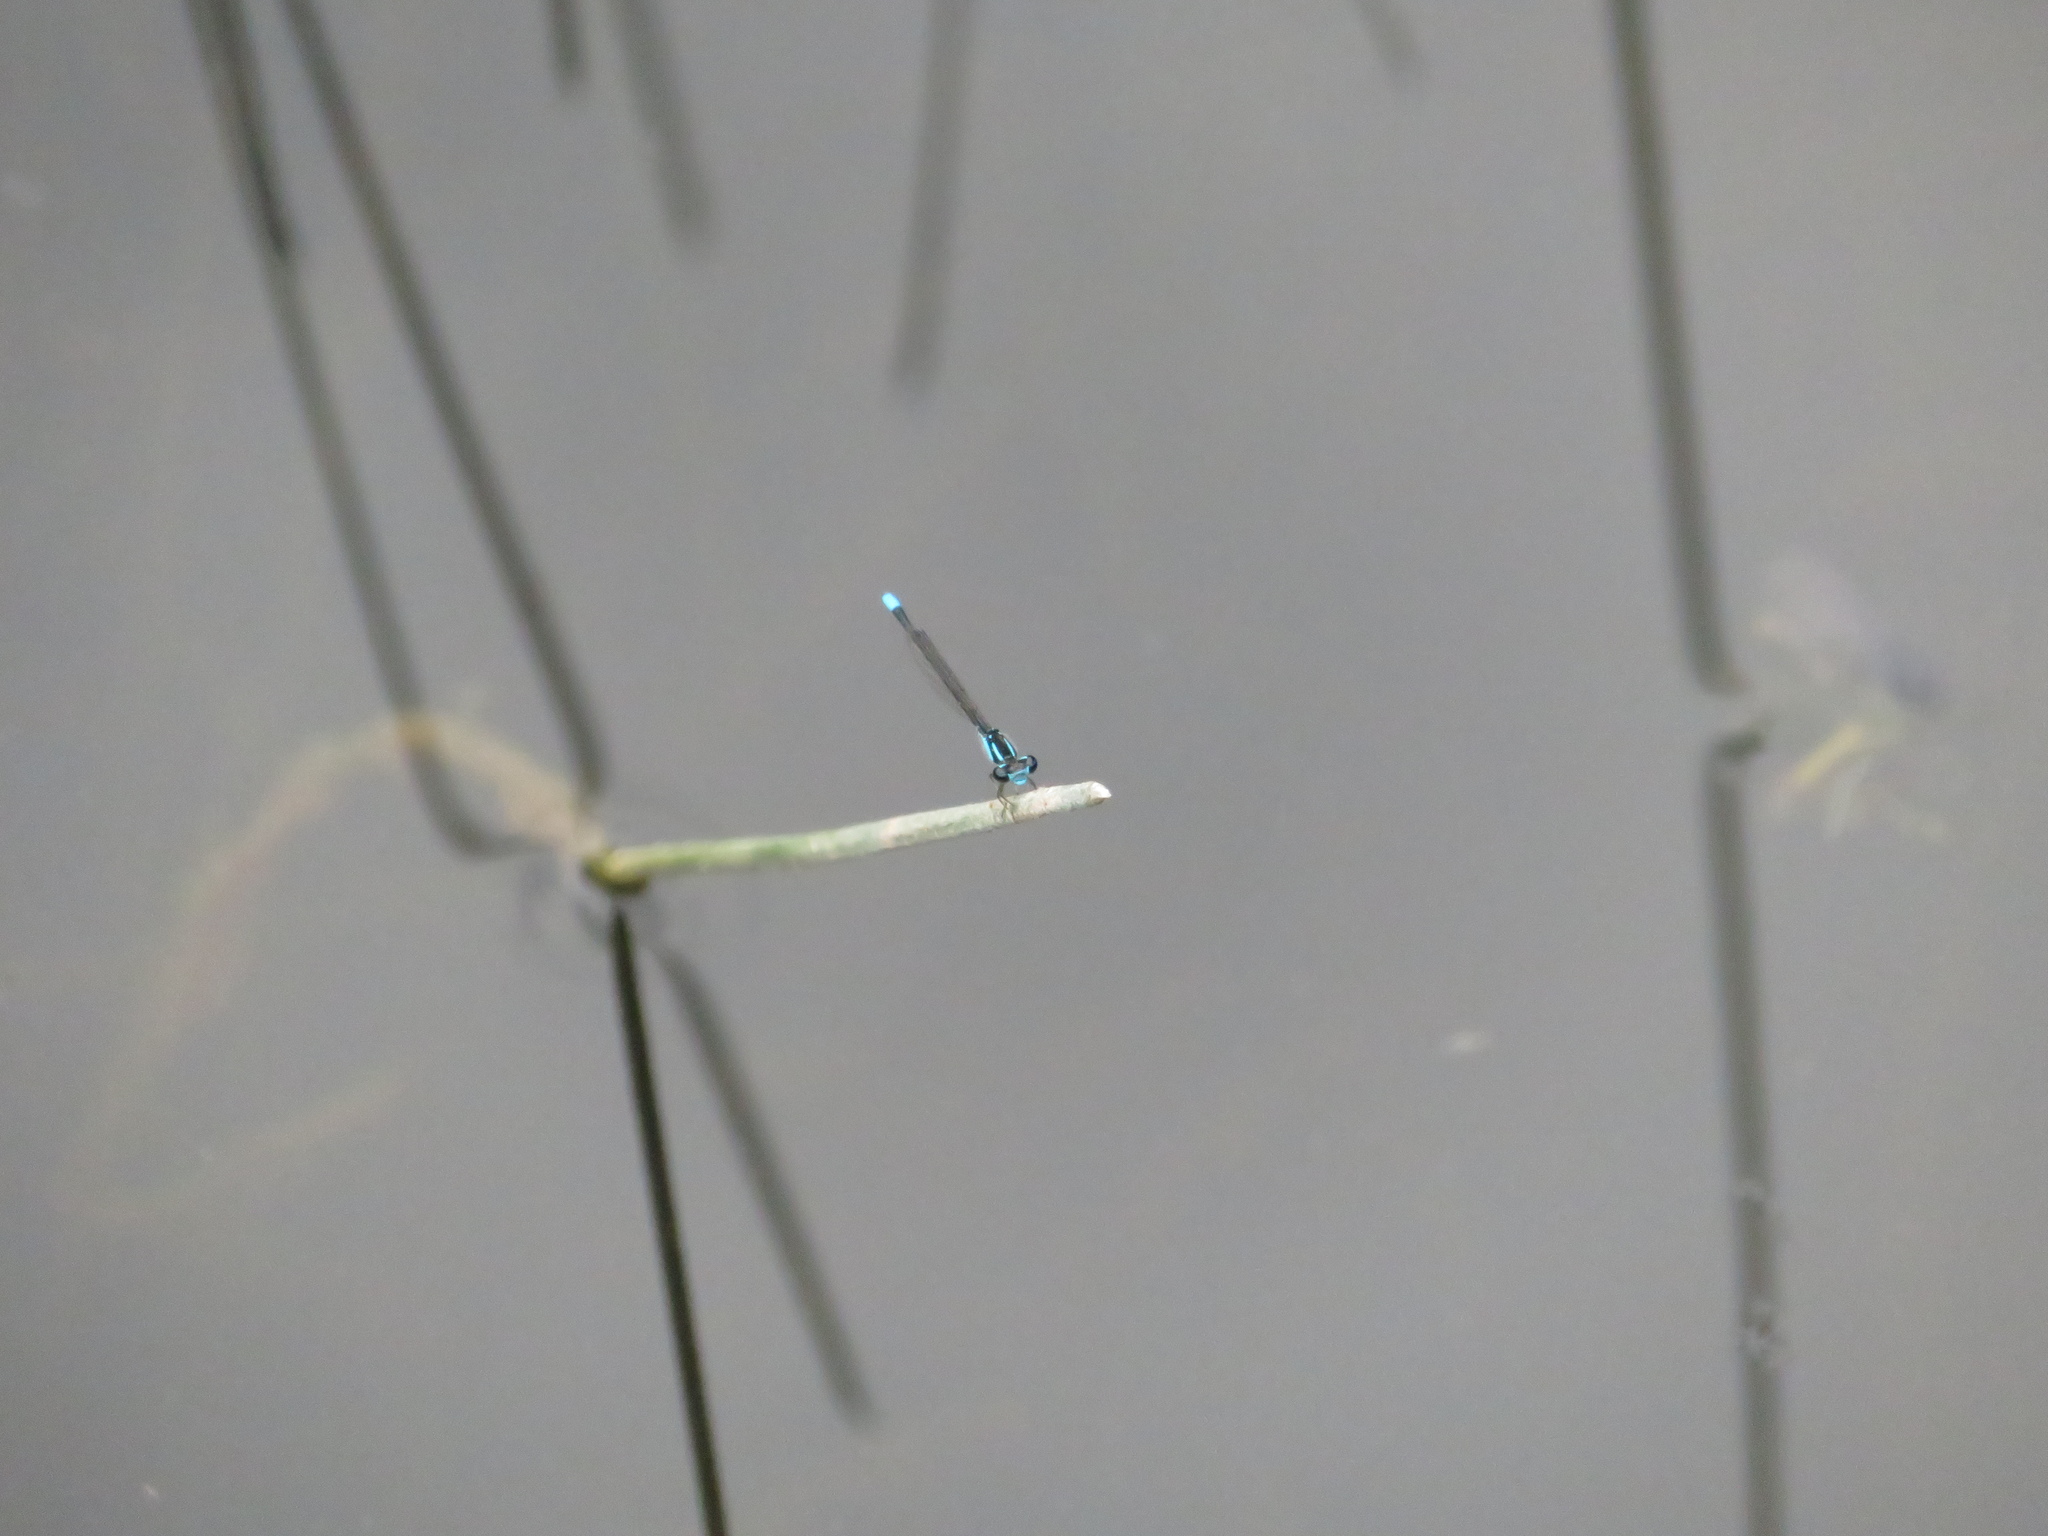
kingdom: Animalia
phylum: Arthropoda
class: Insecta
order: Odonata
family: Coenagrionidae
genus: Enallagma
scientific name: Enallagma geminatum
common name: Skimming bluet
